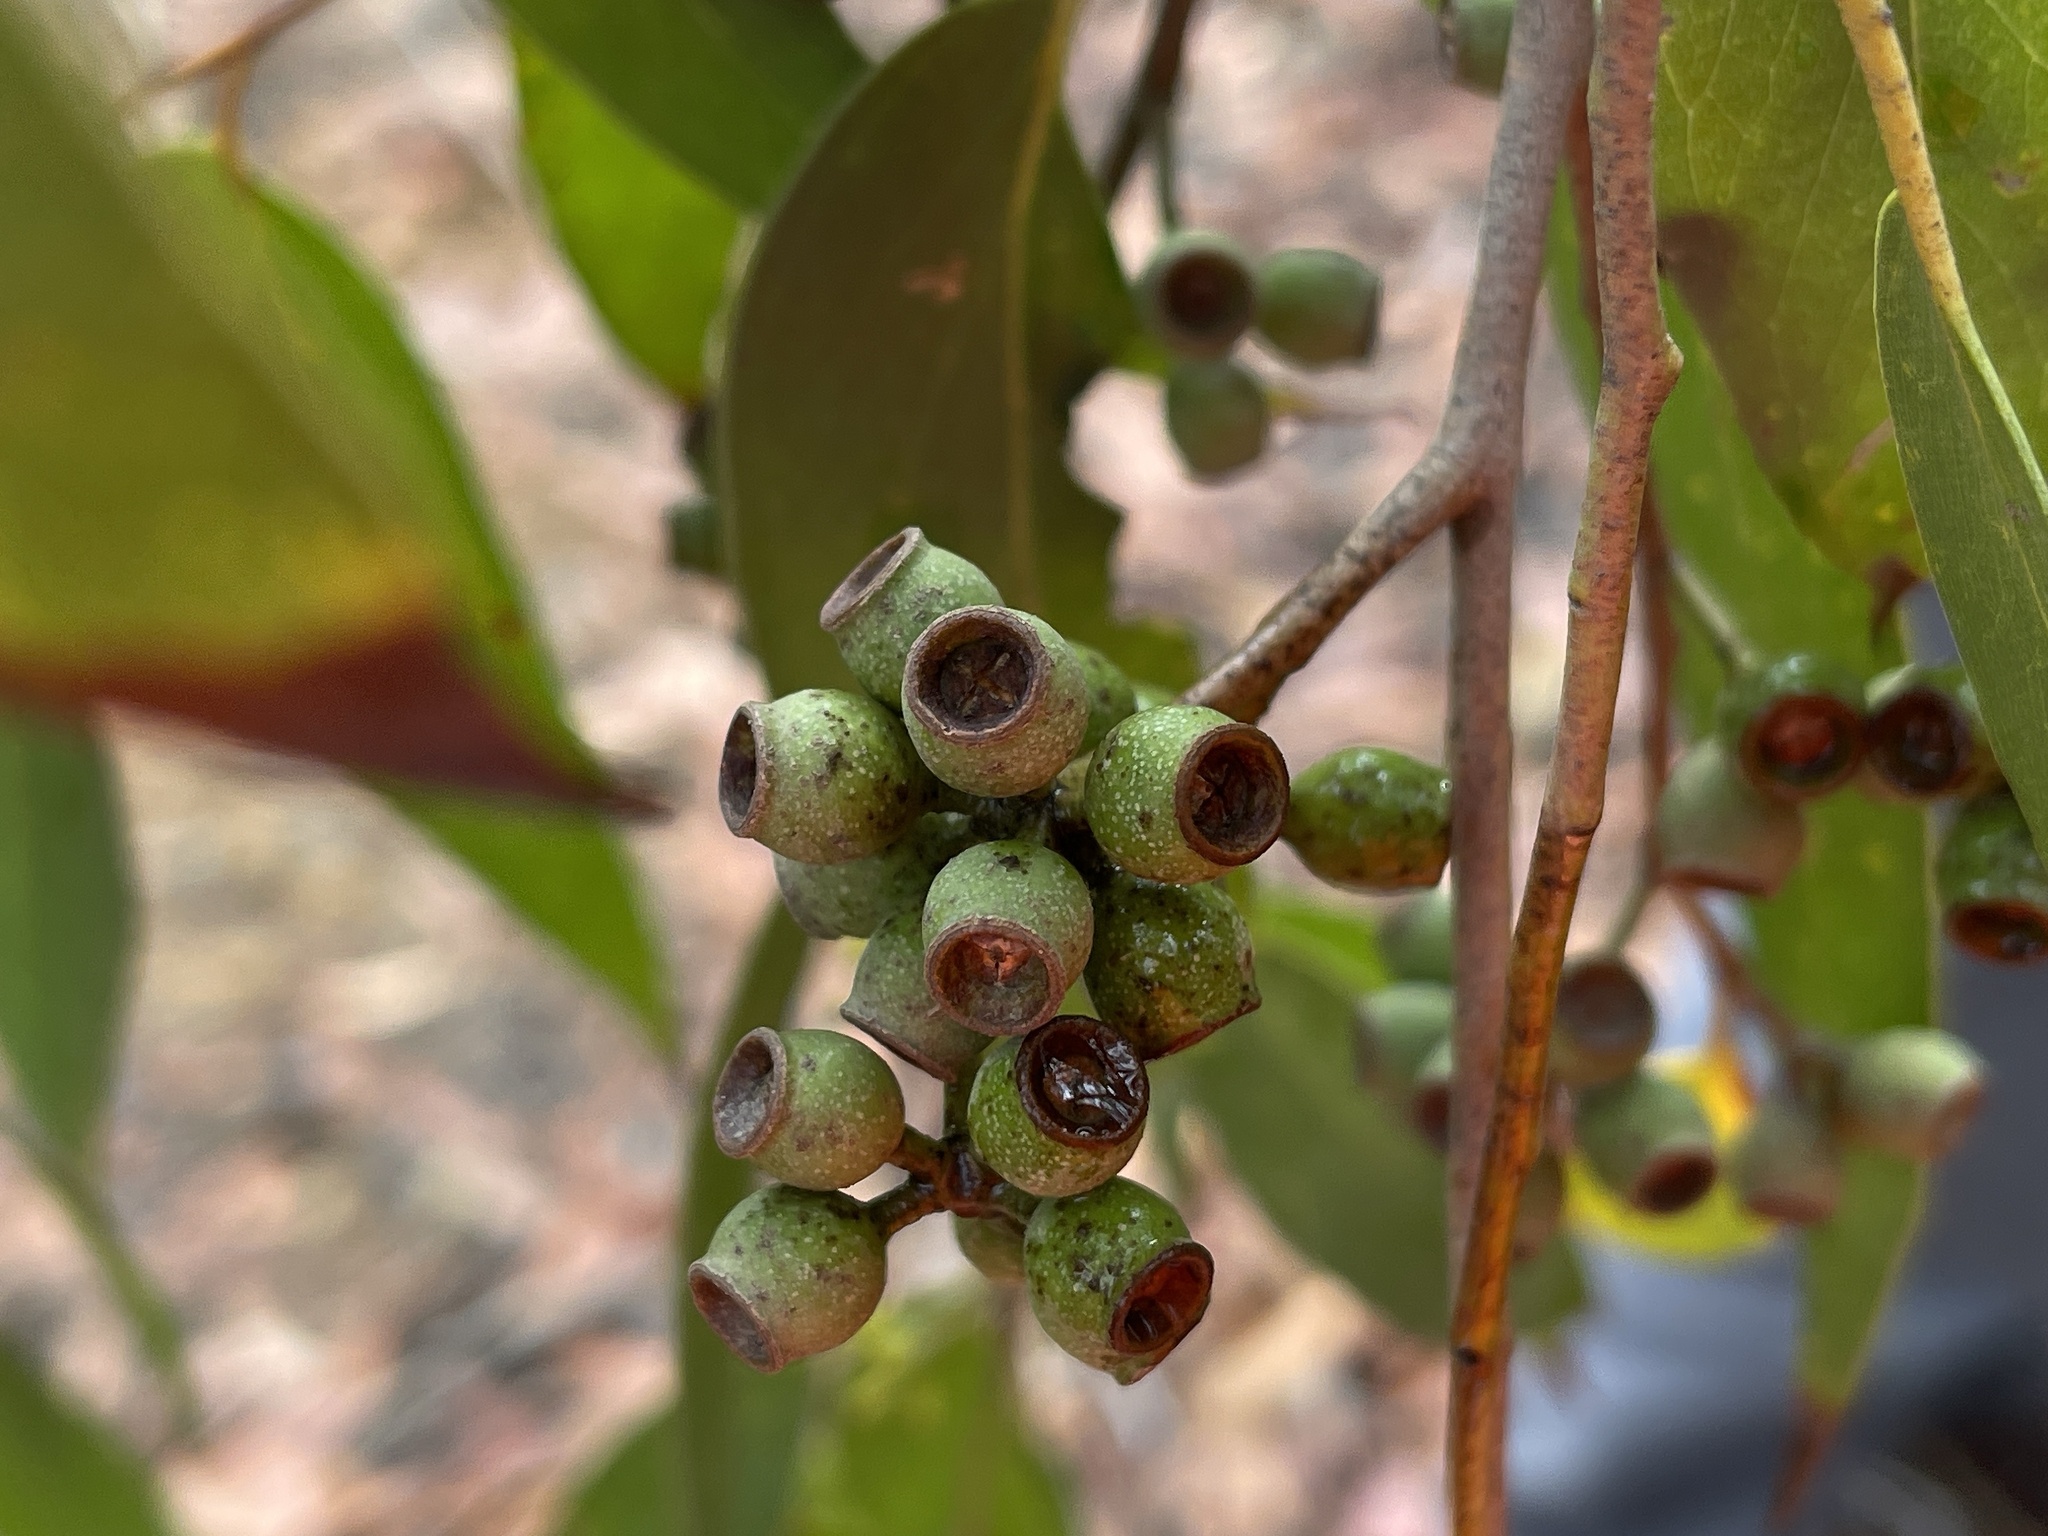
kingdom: Plantae
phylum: Tracheophyta
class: Magnoliopsida
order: Myrtales
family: Myrtaceae
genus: Eucalyptus
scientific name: Eucalyptus obliqua
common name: Messmate stringybark
